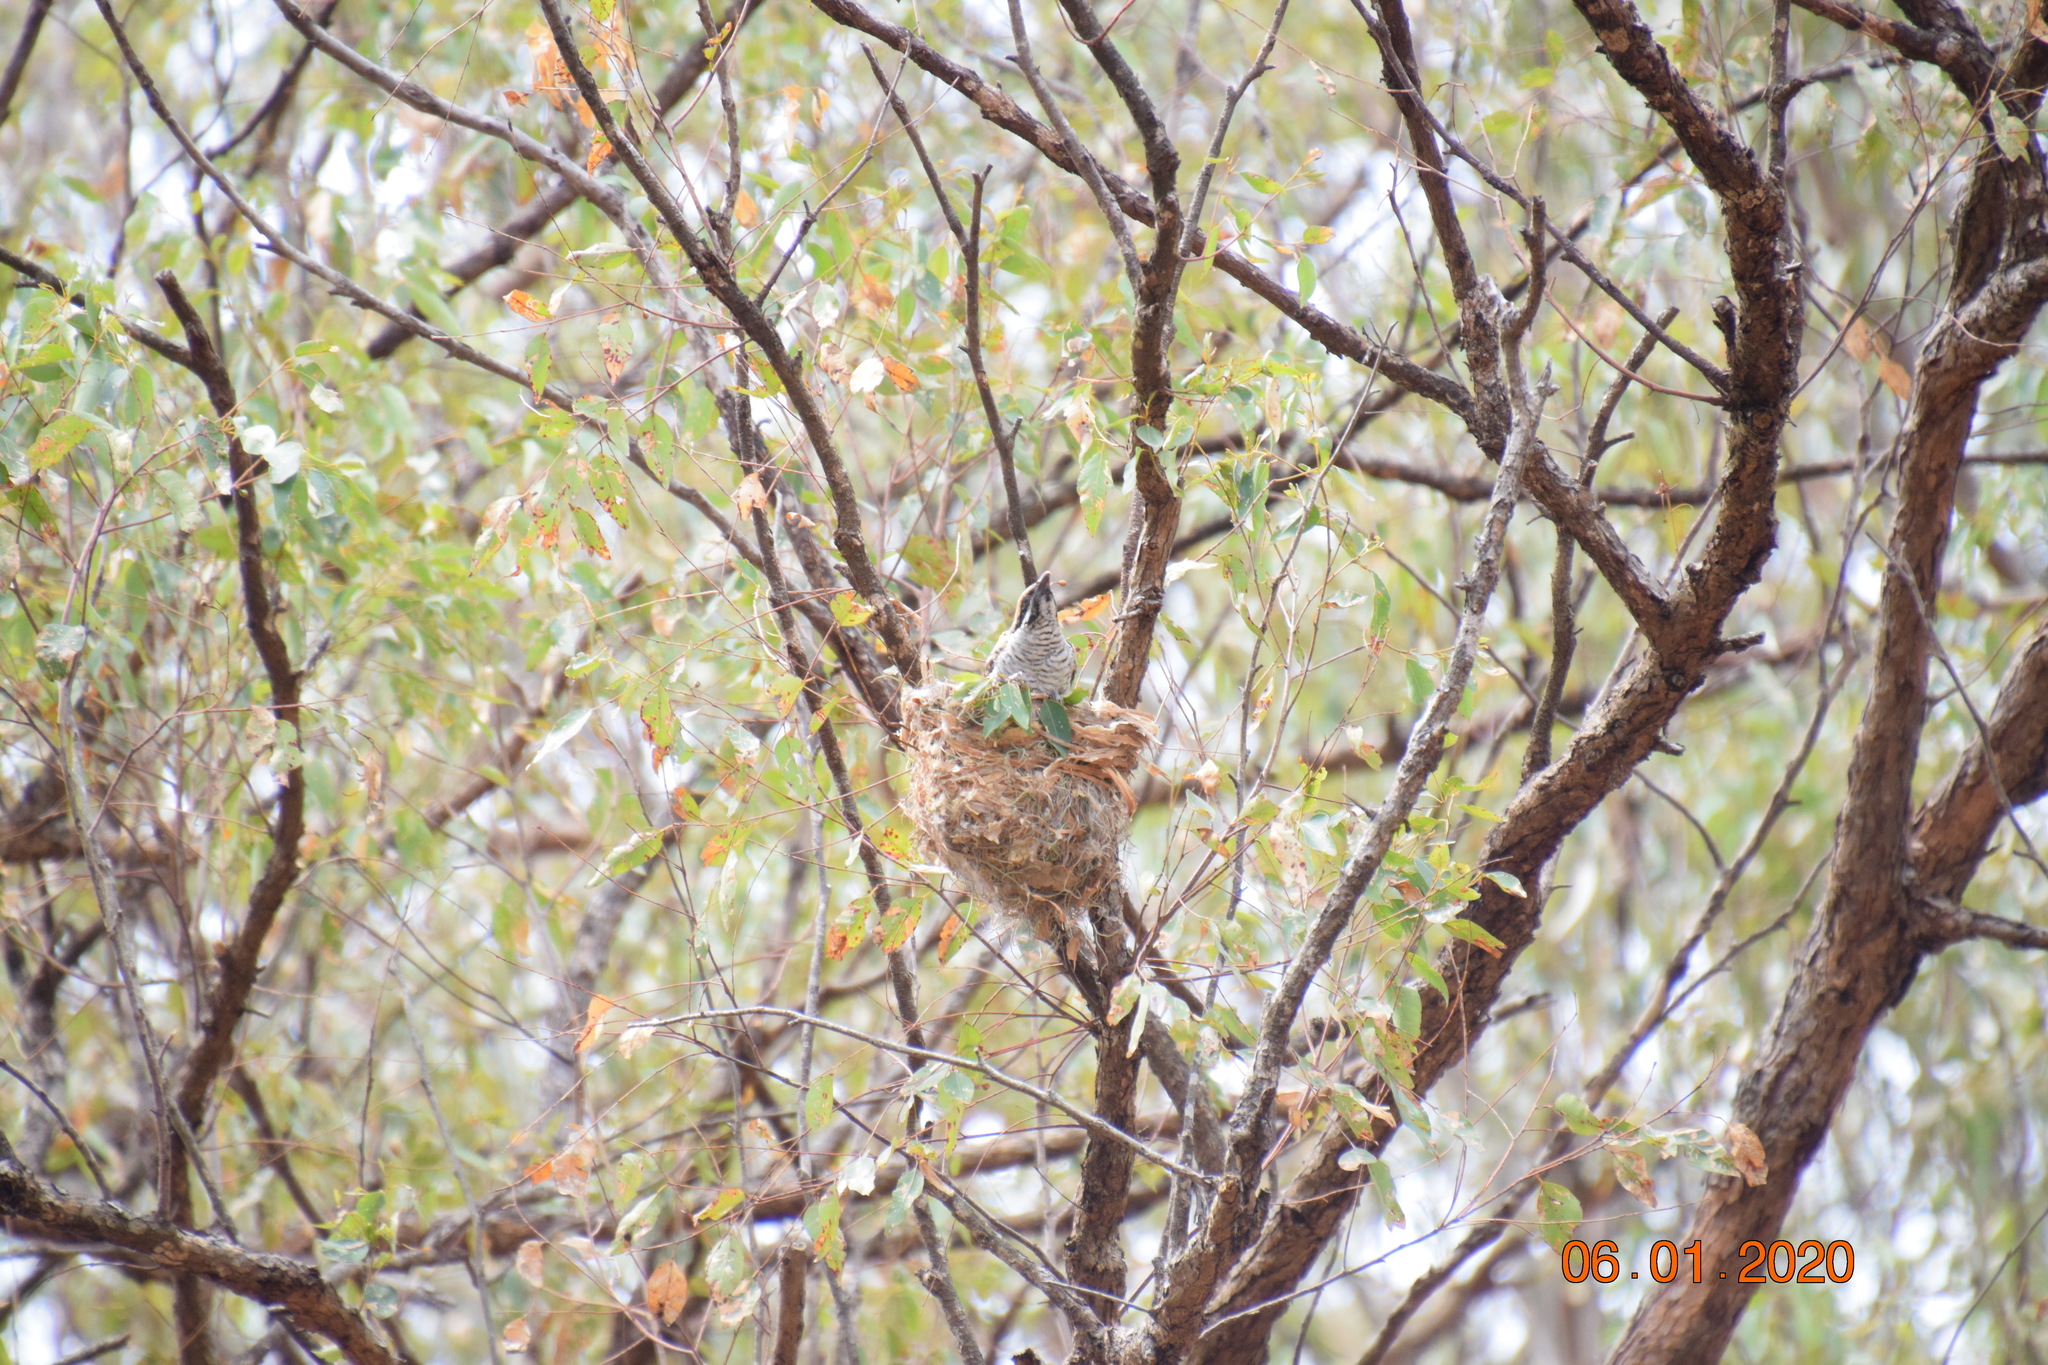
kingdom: Animalia
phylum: Chordata
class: Aves
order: Cuculiformes
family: Cuculidae
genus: Eudynamys
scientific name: Eudynamys orientalis
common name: Pacific koel
